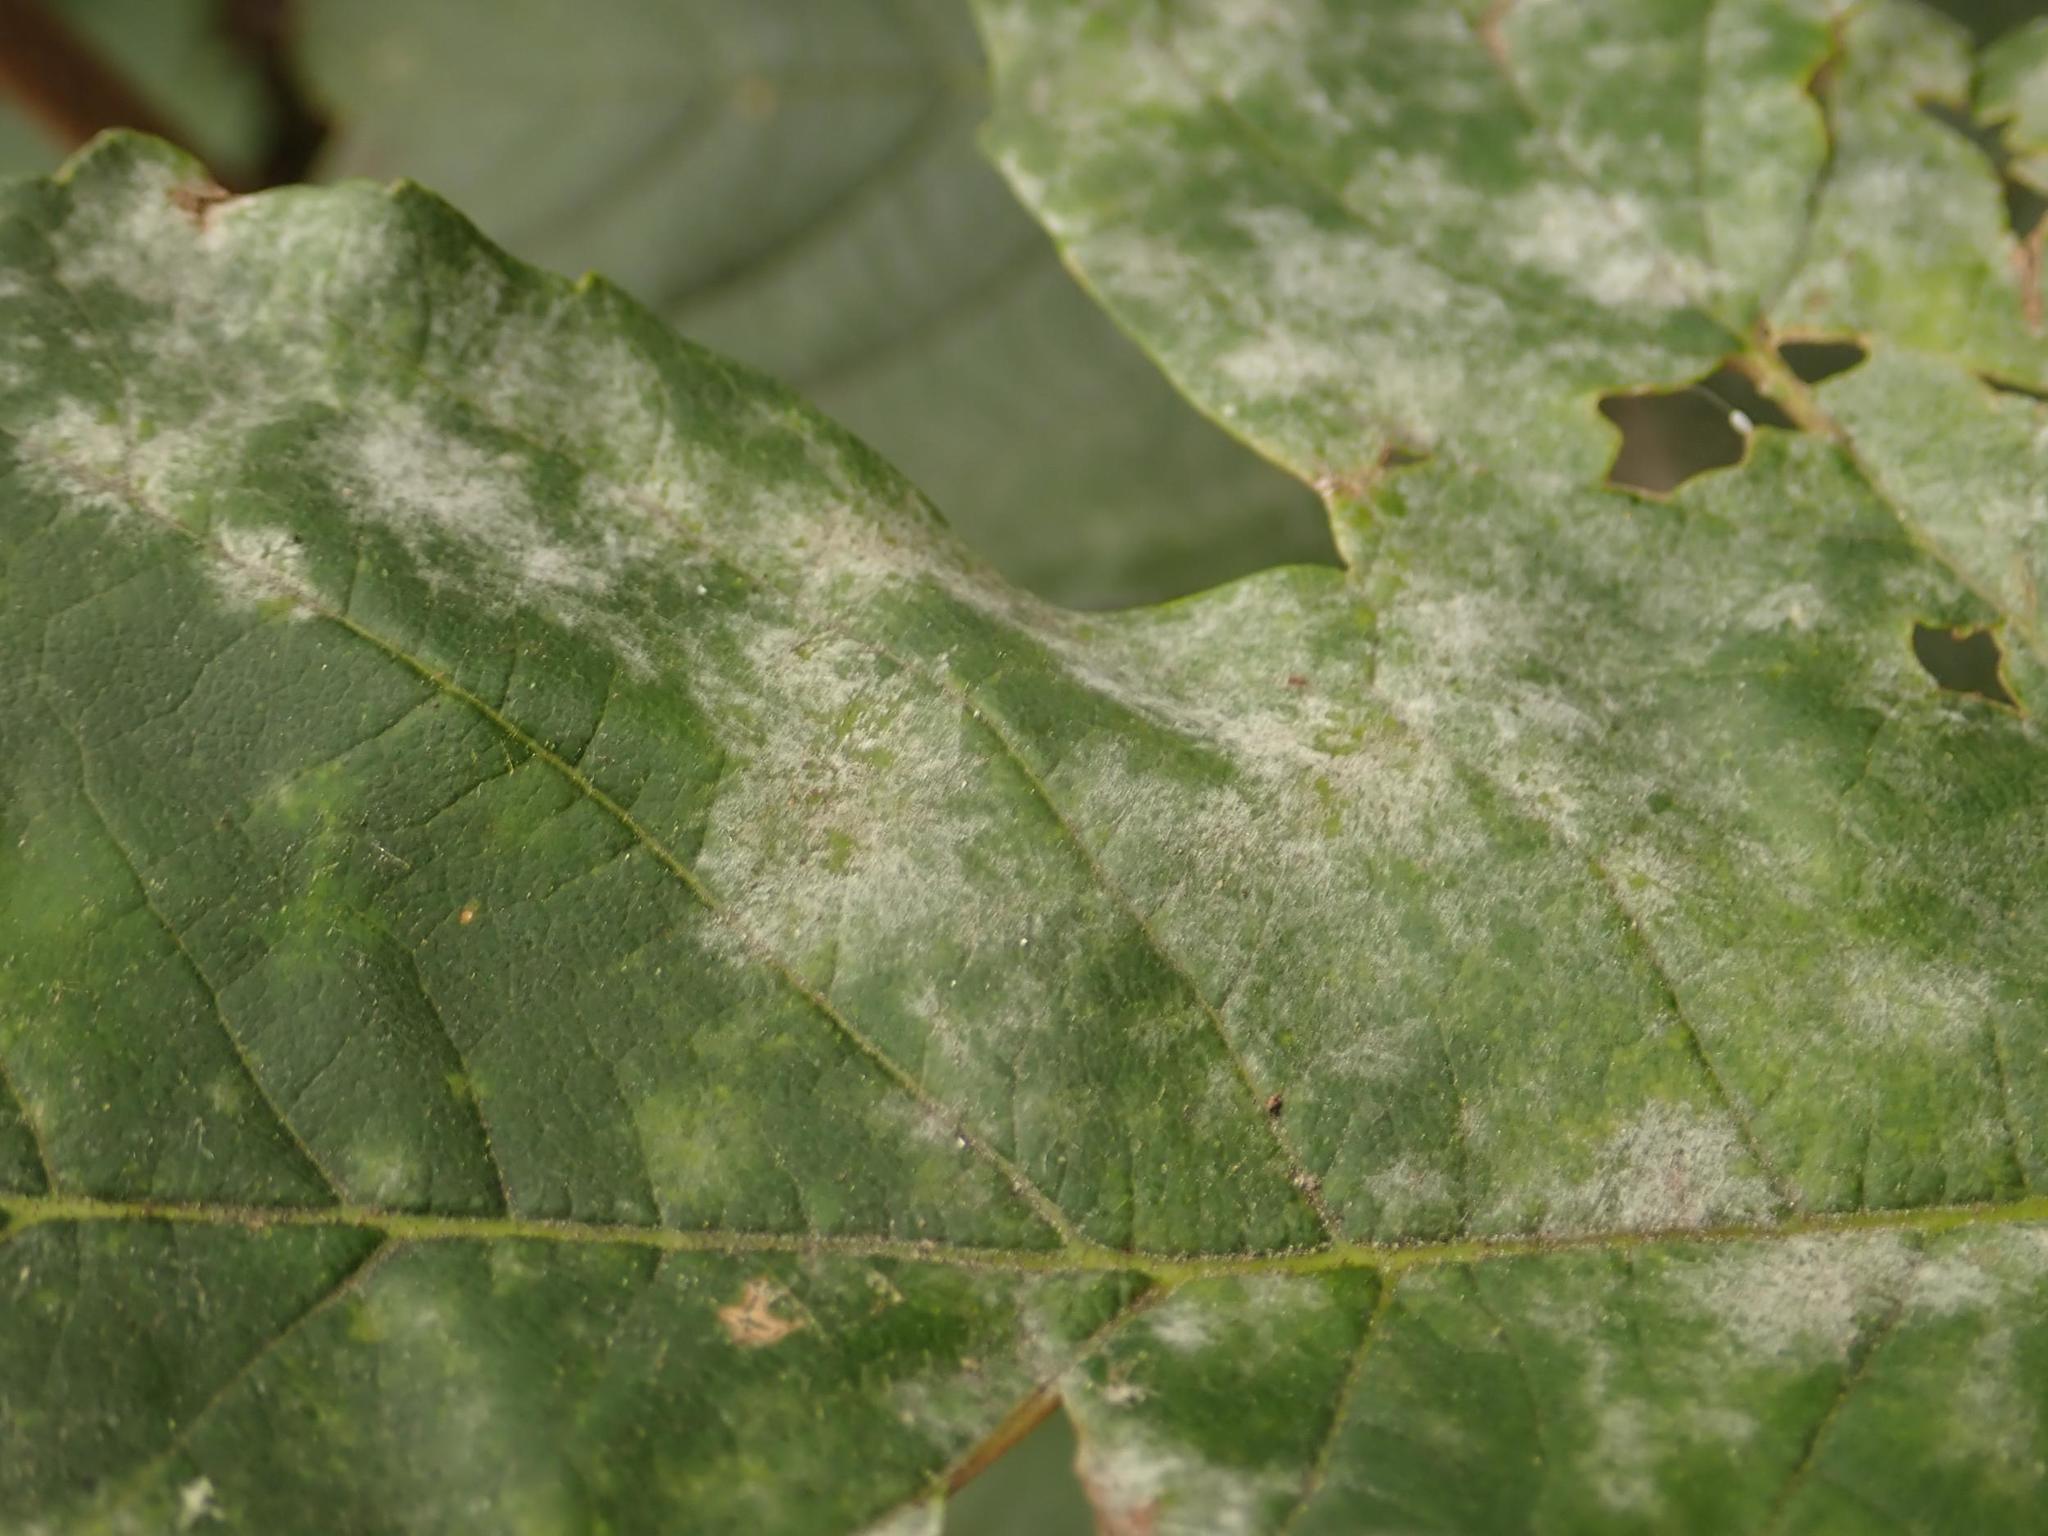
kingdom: Fungi
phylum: Ascomycota
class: Leotiomycetes
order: Helotiales
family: Erysiphaceae
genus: Sawadaea
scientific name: Sawadaea bicornis
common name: Maple mildew
